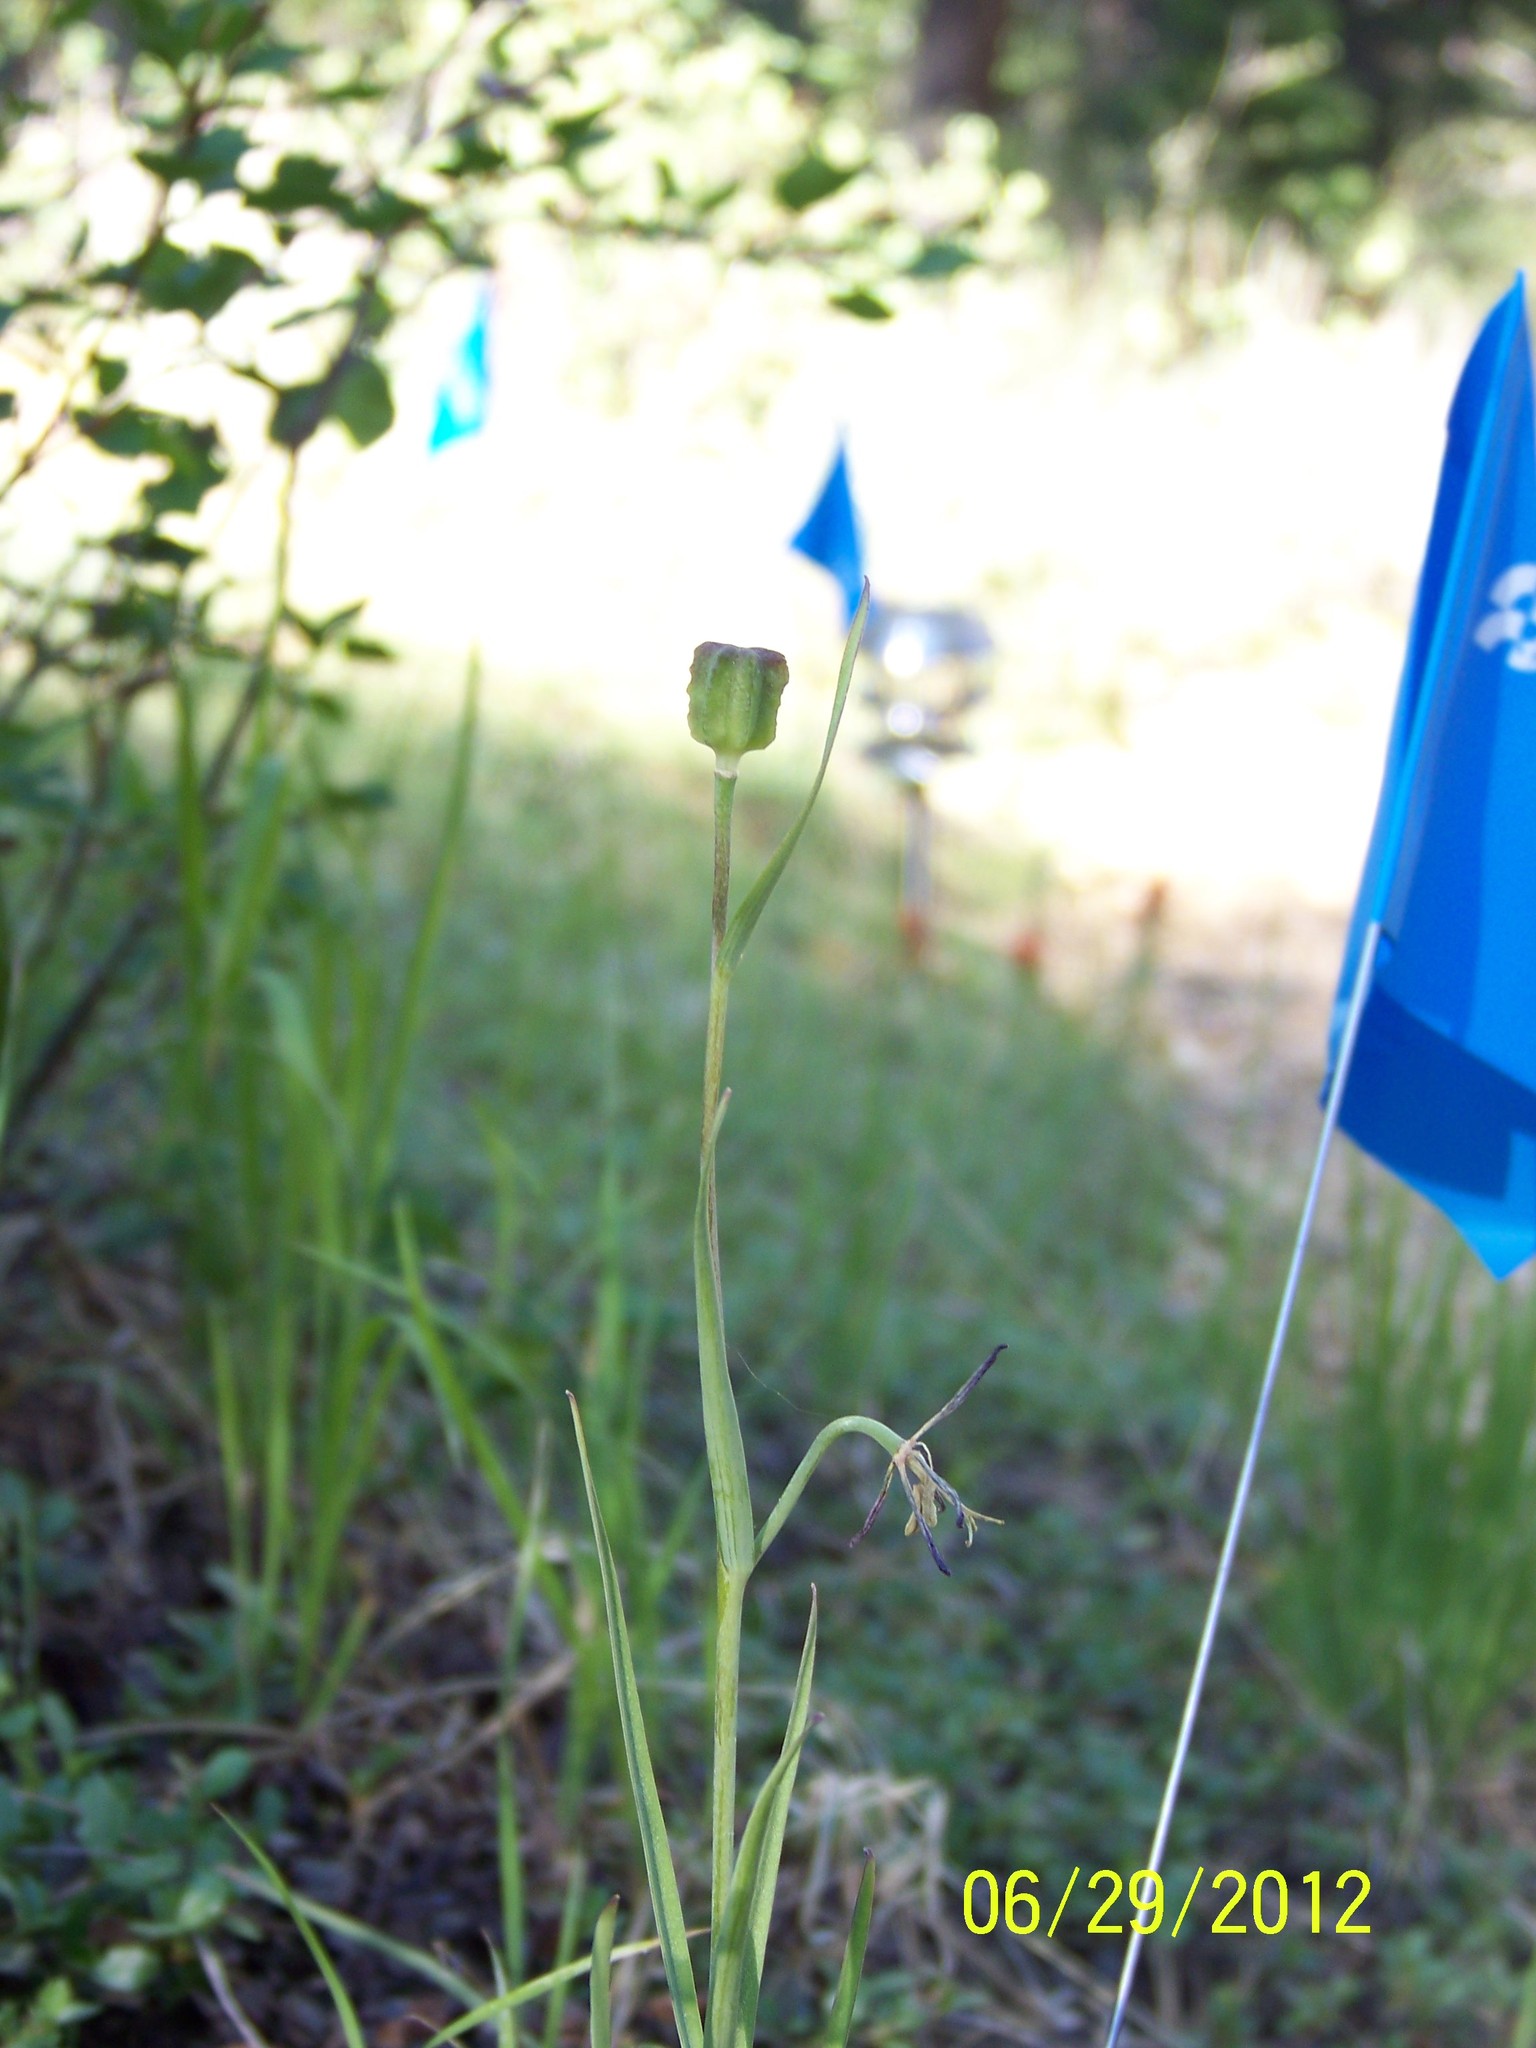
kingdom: Plantae
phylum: Tracheophyta
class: Liliopsida
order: Liliales
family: Liliaceae
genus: Fritillaria
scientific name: Fritillaria atropurpurea
